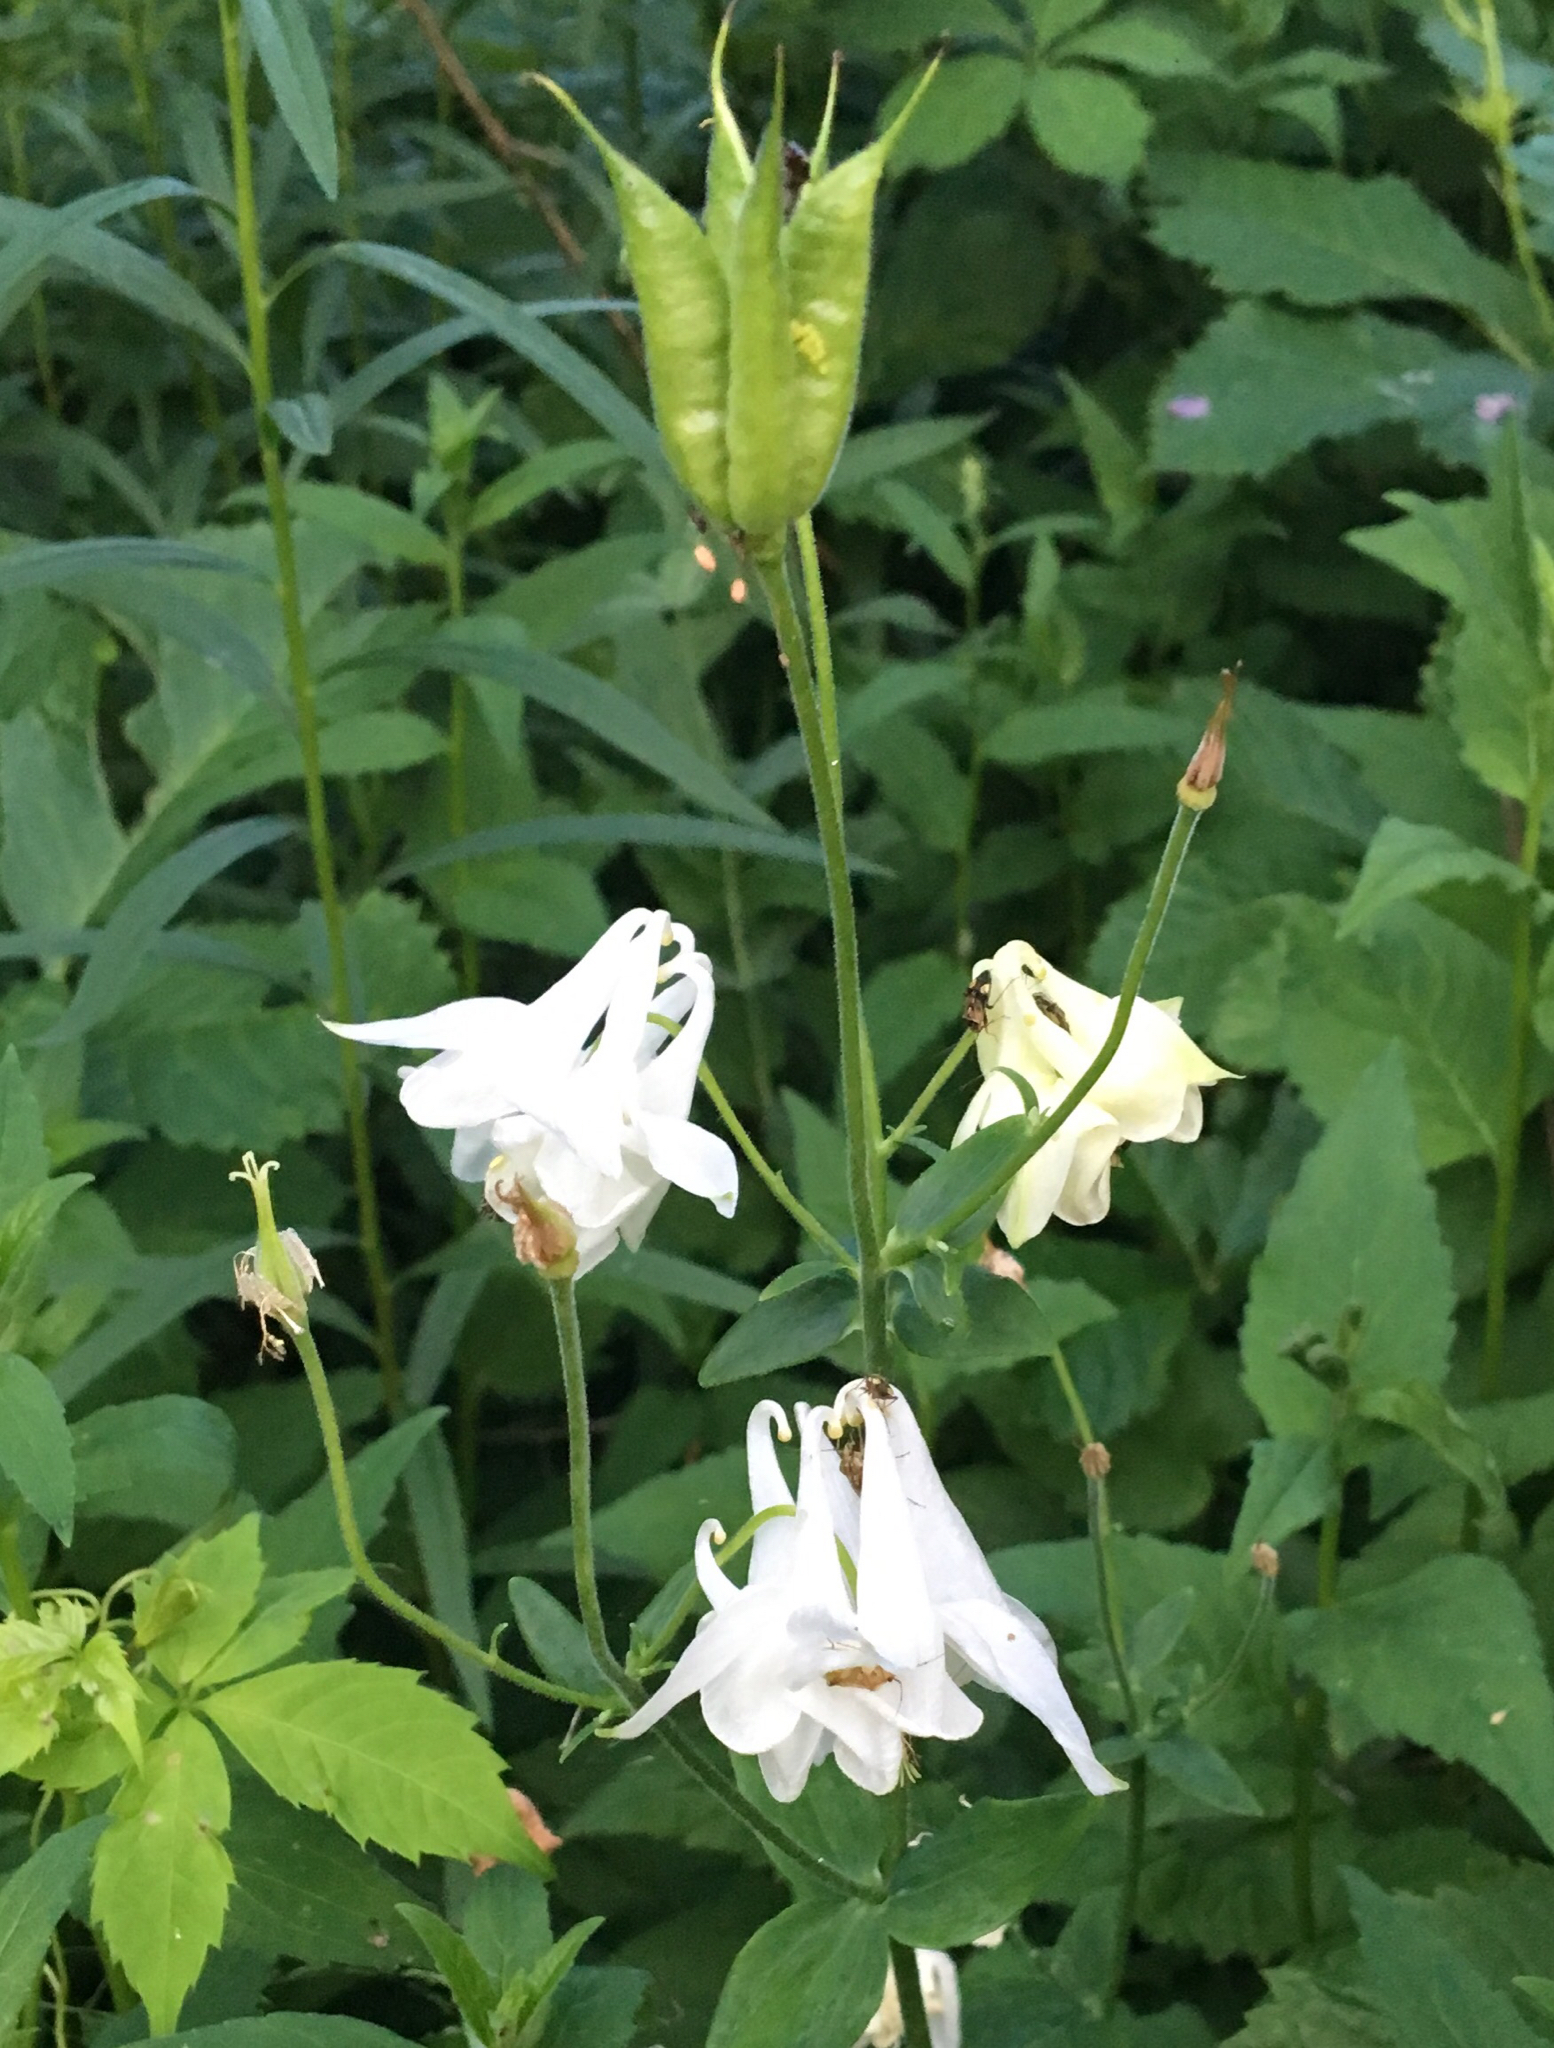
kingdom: Plantae
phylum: Tracheophyta
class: Magnoliopsida
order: Ranunculales
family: Ranunculaceae
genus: Aquilegia
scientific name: Aquilegia vulgaris
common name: Columbine
